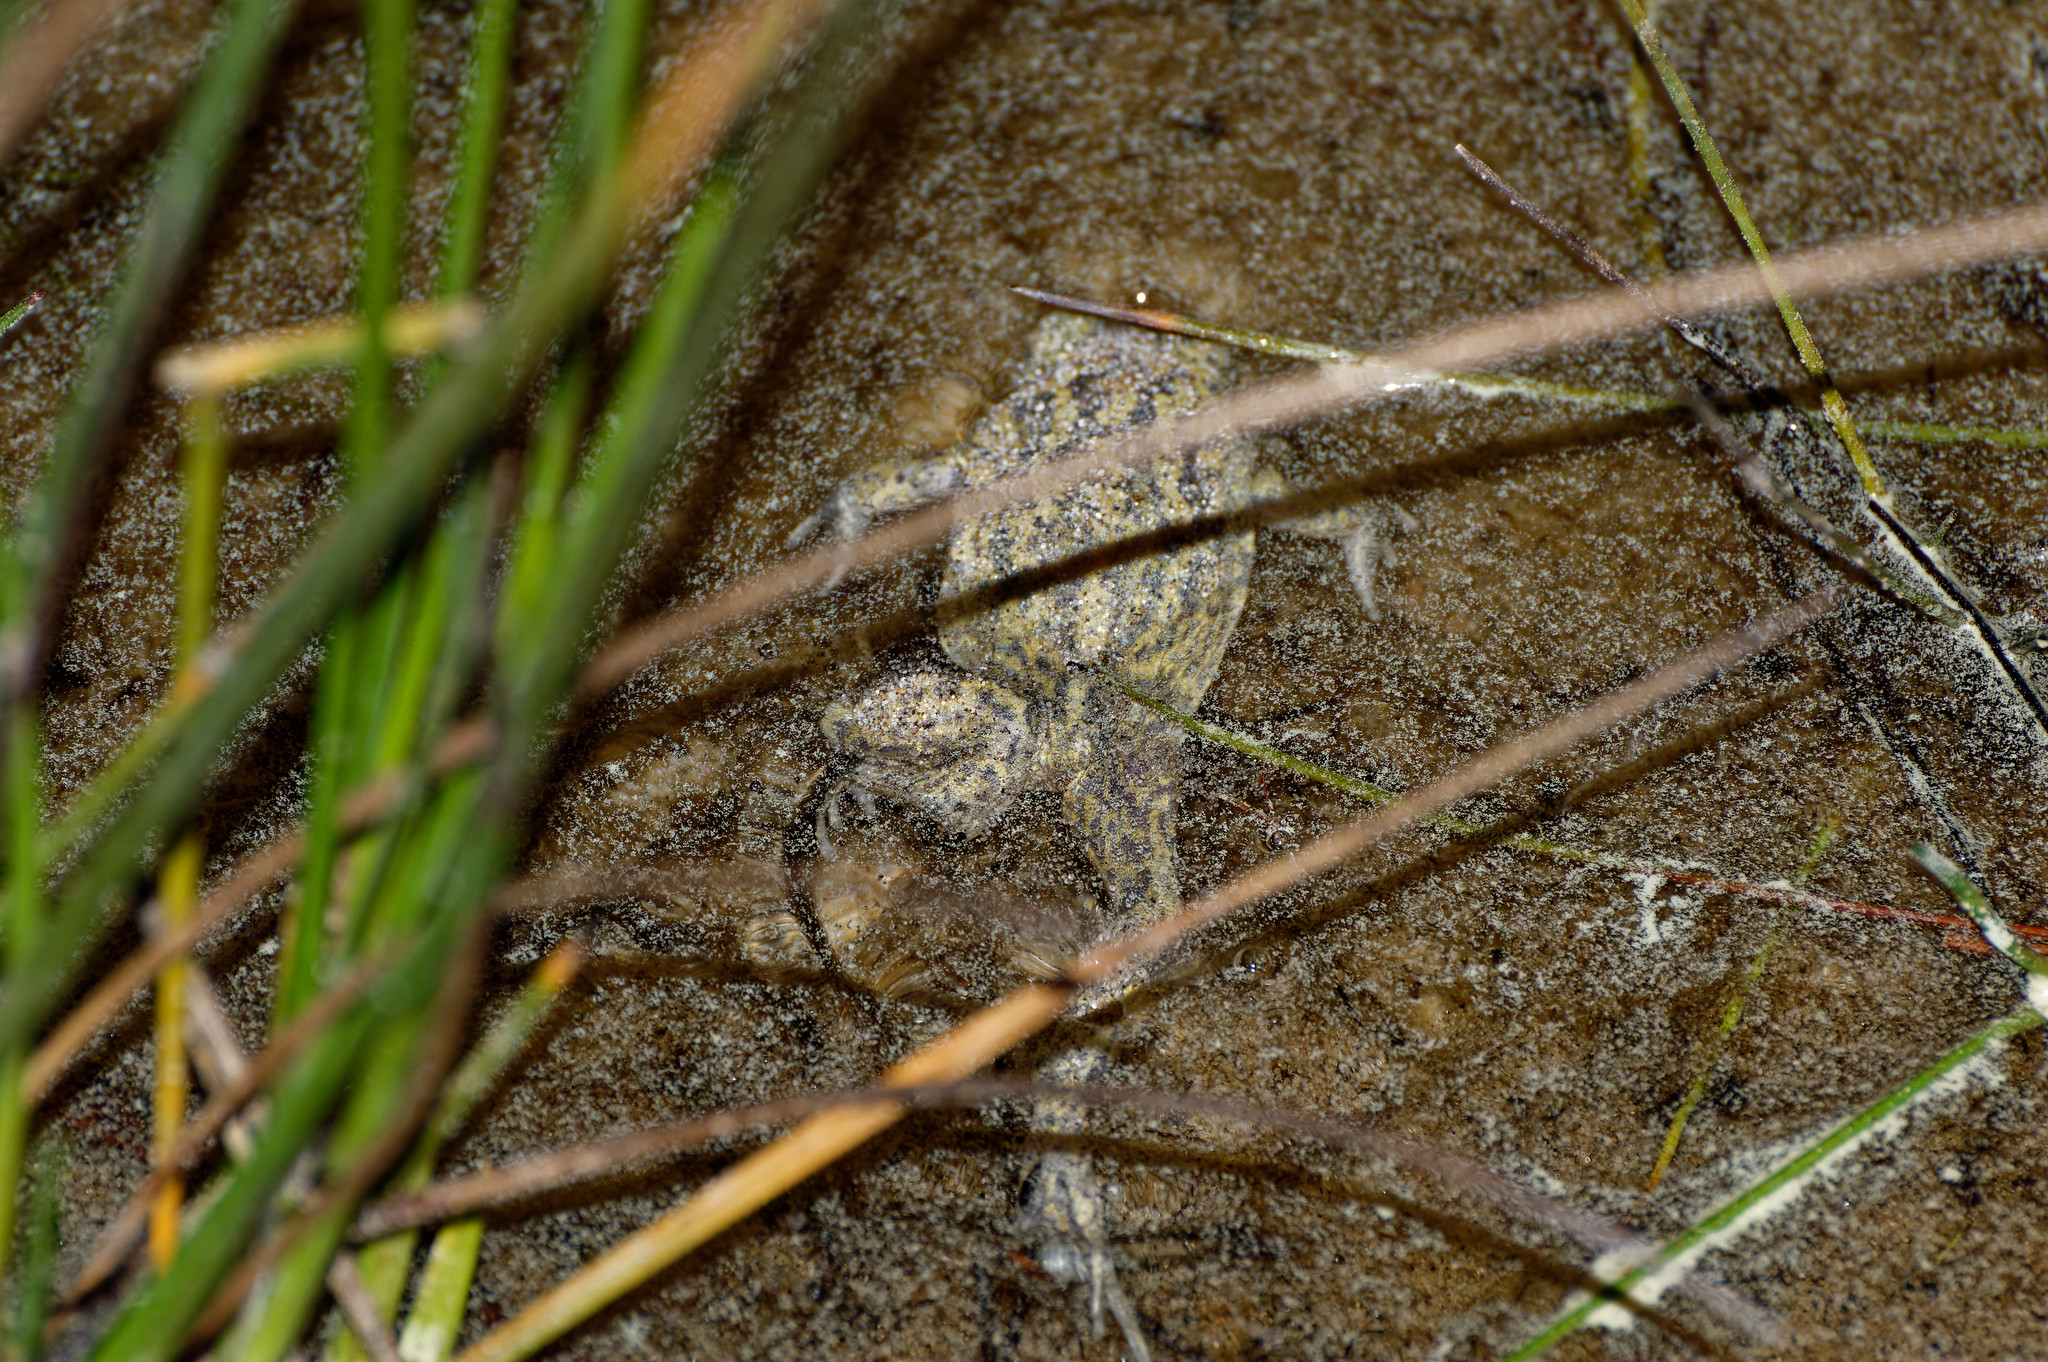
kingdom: Animalia
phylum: Chordata
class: Amphibia
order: Anura
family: Pelobatidae
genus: Pelobates
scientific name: Pelobates cultripes
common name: Western spadefoot
